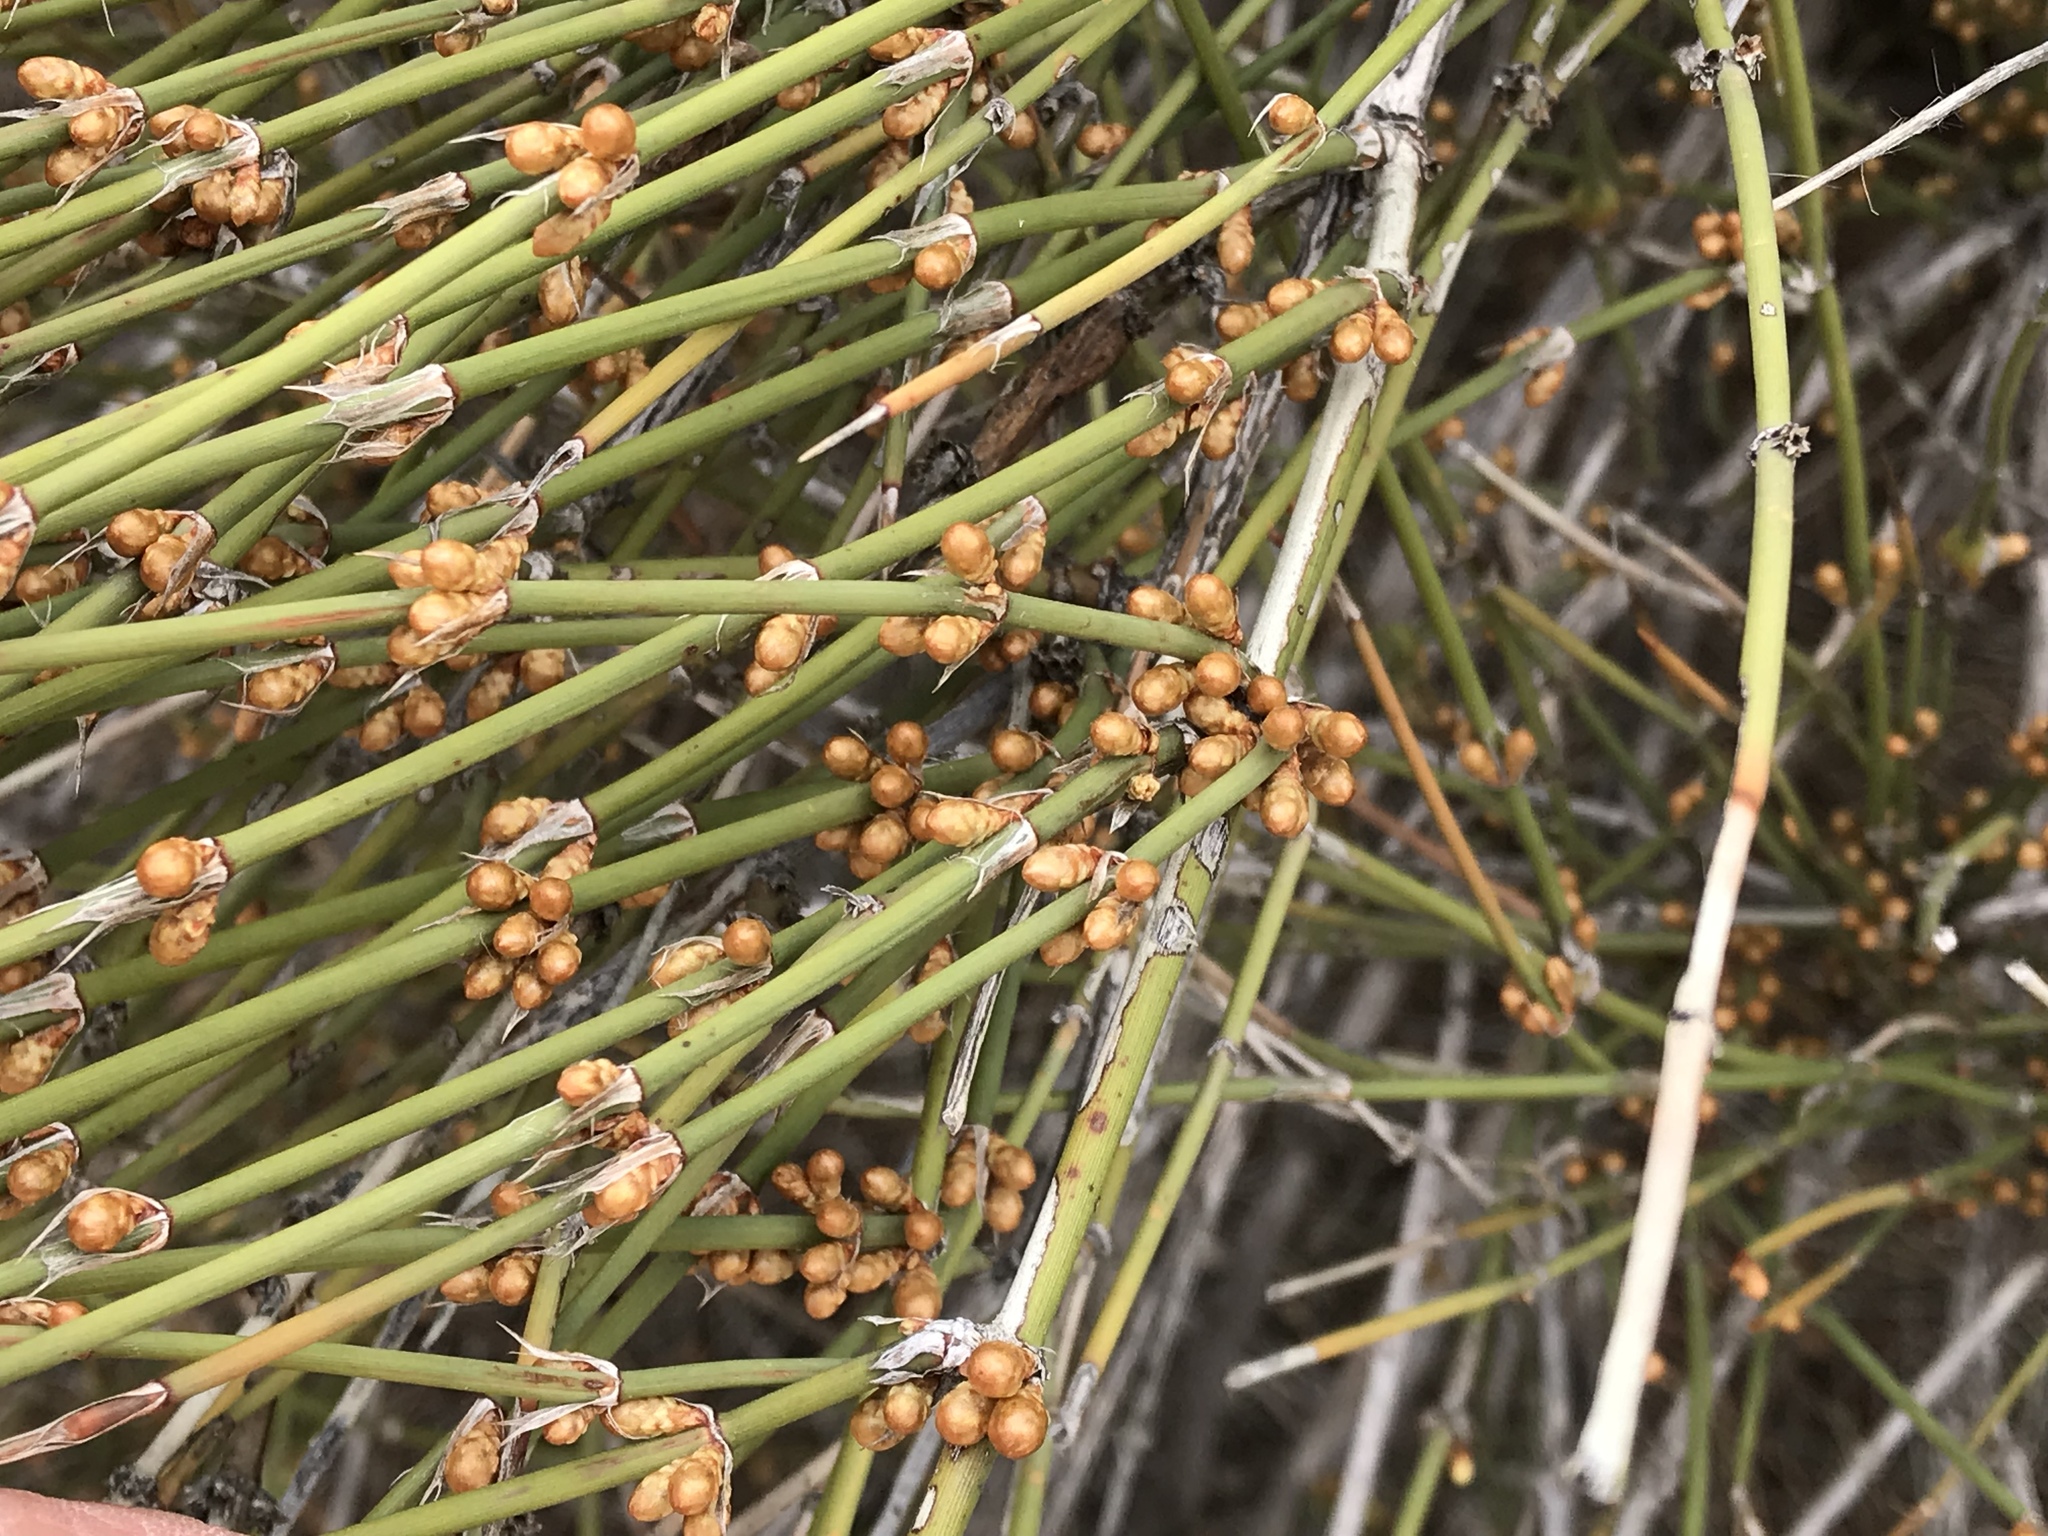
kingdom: Plantae
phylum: Tracheophyta
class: Gnetopsida
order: Ephedrales
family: Ephedraceae
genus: Ephedra
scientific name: Ephedra trifurca
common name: Mexican-tea
